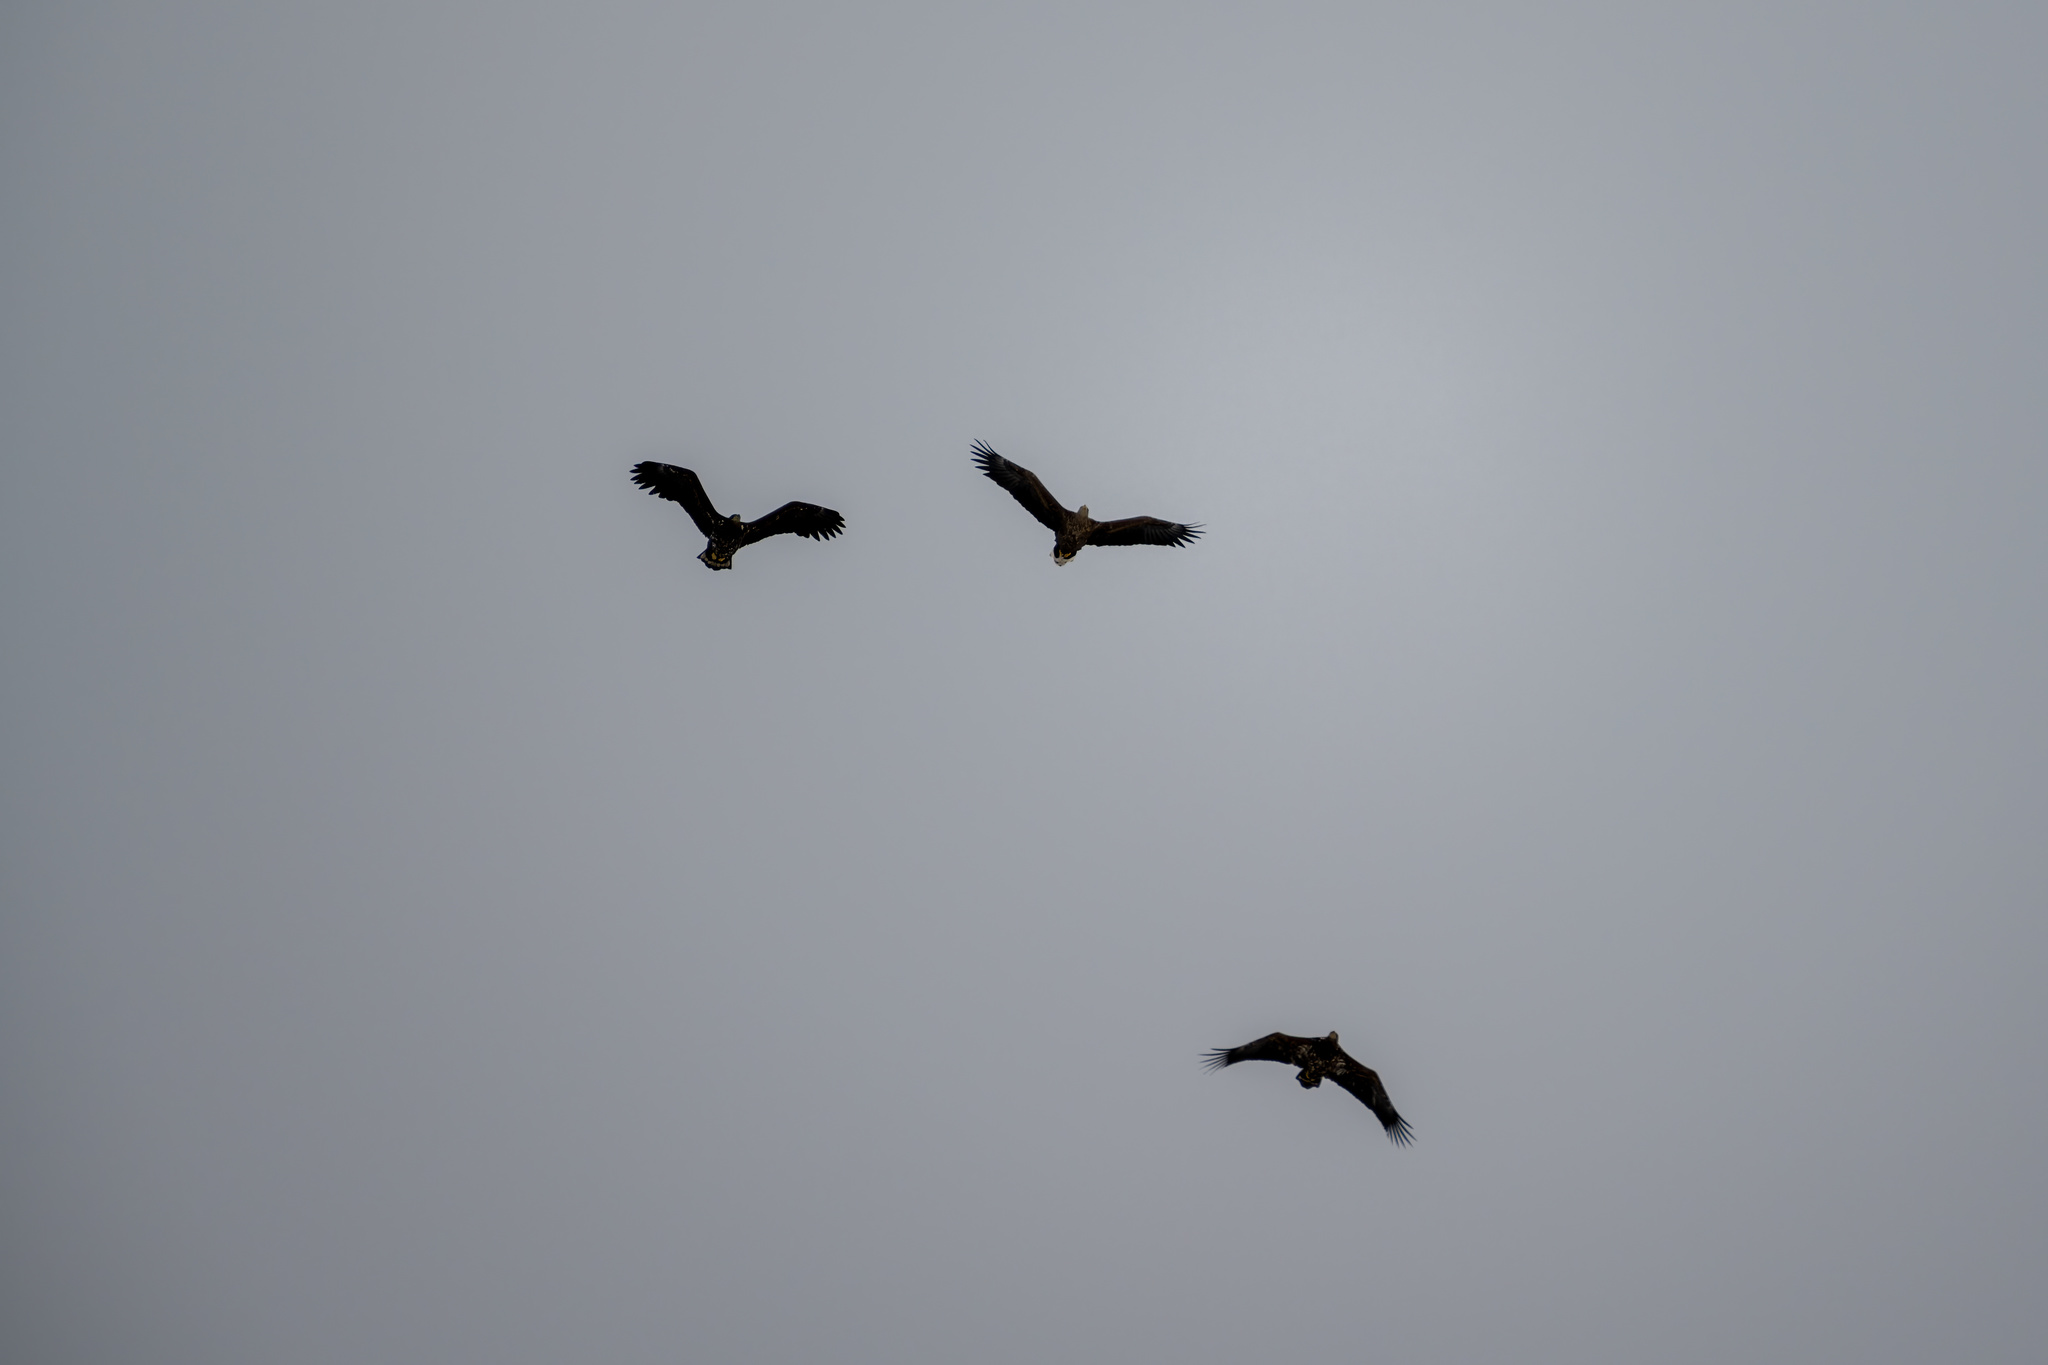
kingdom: Animalia
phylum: Chordata
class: Aves
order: Accipitriformes
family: Accipitridae
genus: Haliaeetus
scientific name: Haliaeetus albicilla
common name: White-tailed eagle
